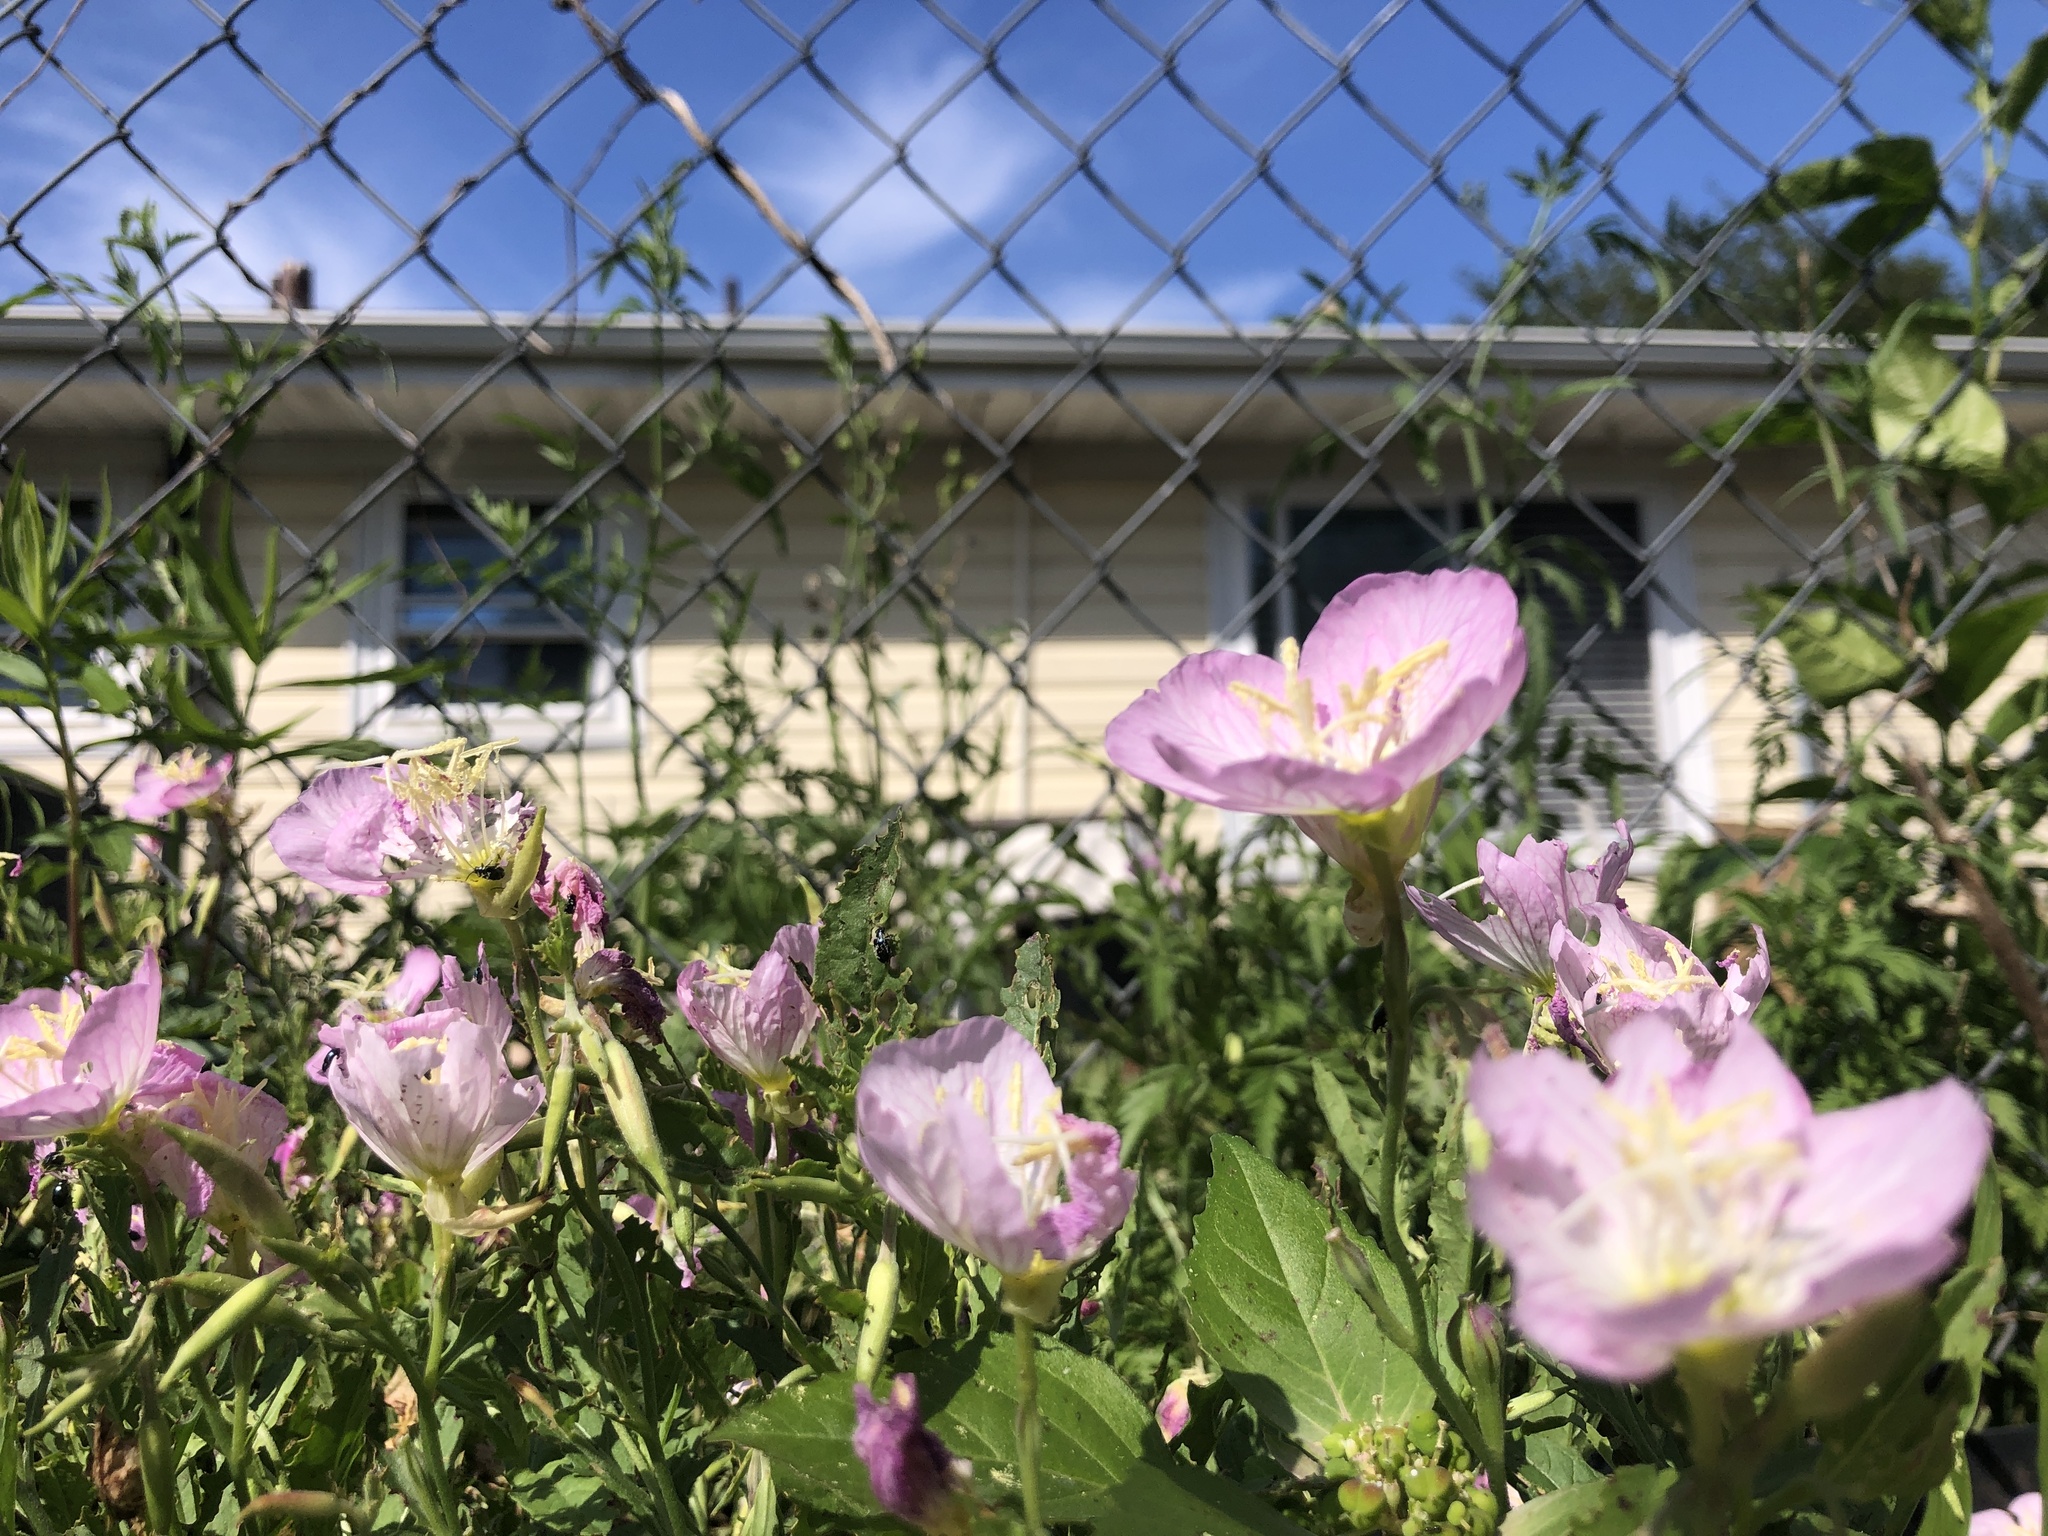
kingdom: Plantae
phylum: Tracheophyta
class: Magnoliopsida
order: Myrtales
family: Onagraceae
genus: Oenothera
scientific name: Oenothera speciosa
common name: White evening-primrose
